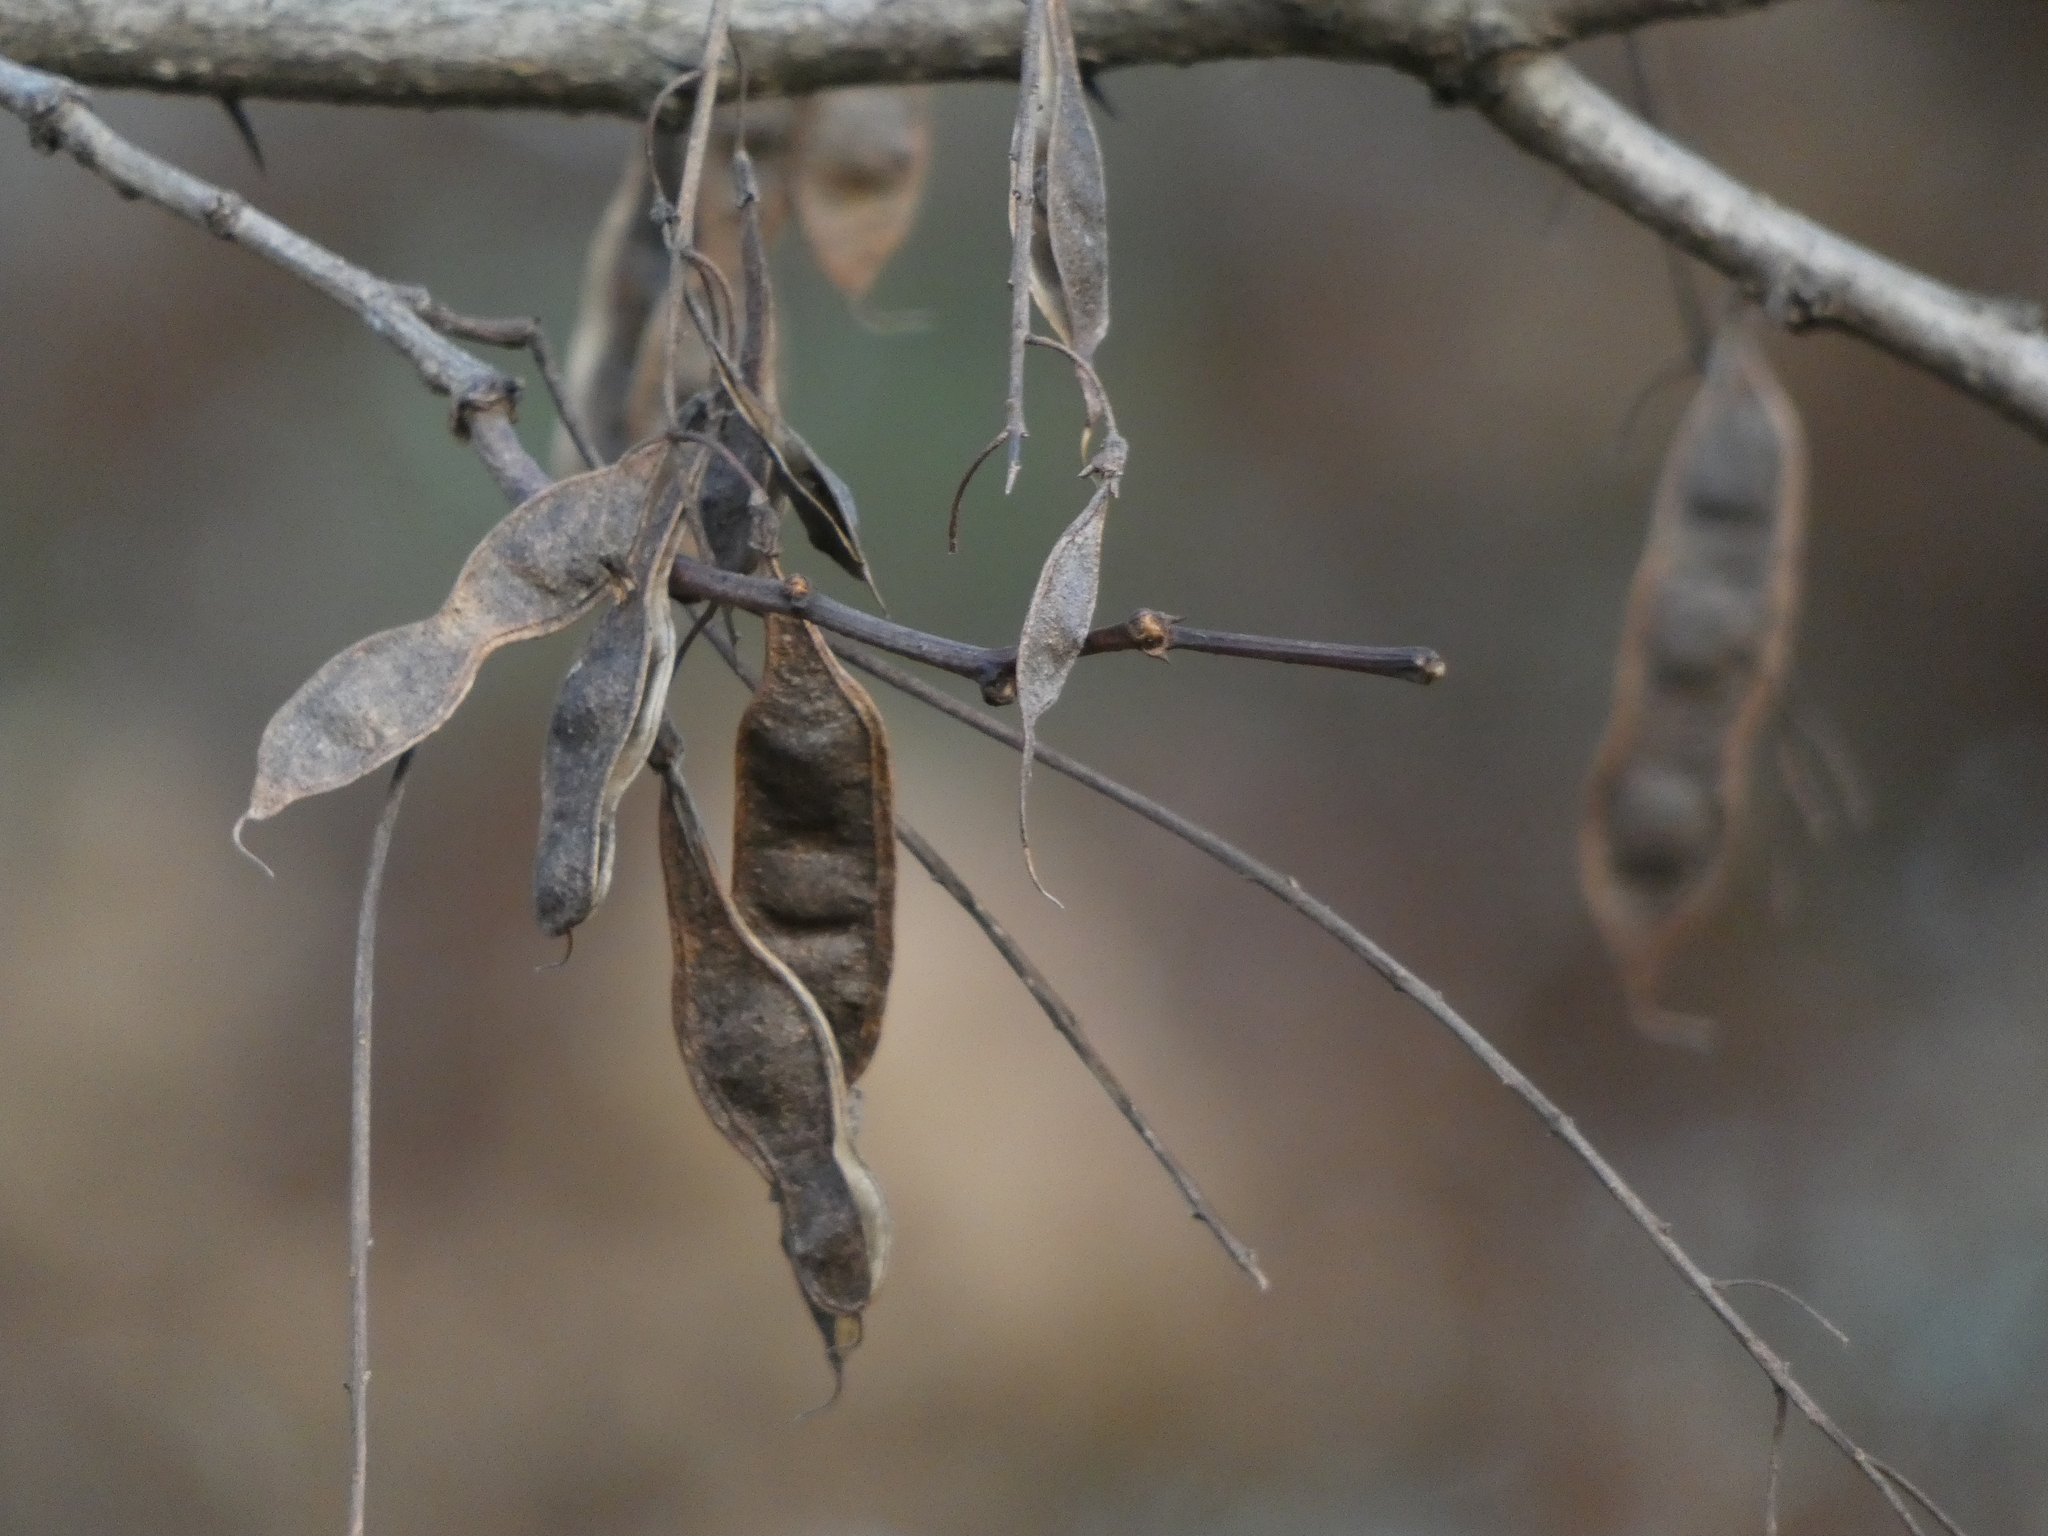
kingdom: Plantae
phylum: Tracheophyta
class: Magnoliopsida
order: Fabales
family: Fabaceae
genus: Robinia
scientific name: Robinia pseudoacacia
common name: Black locust
